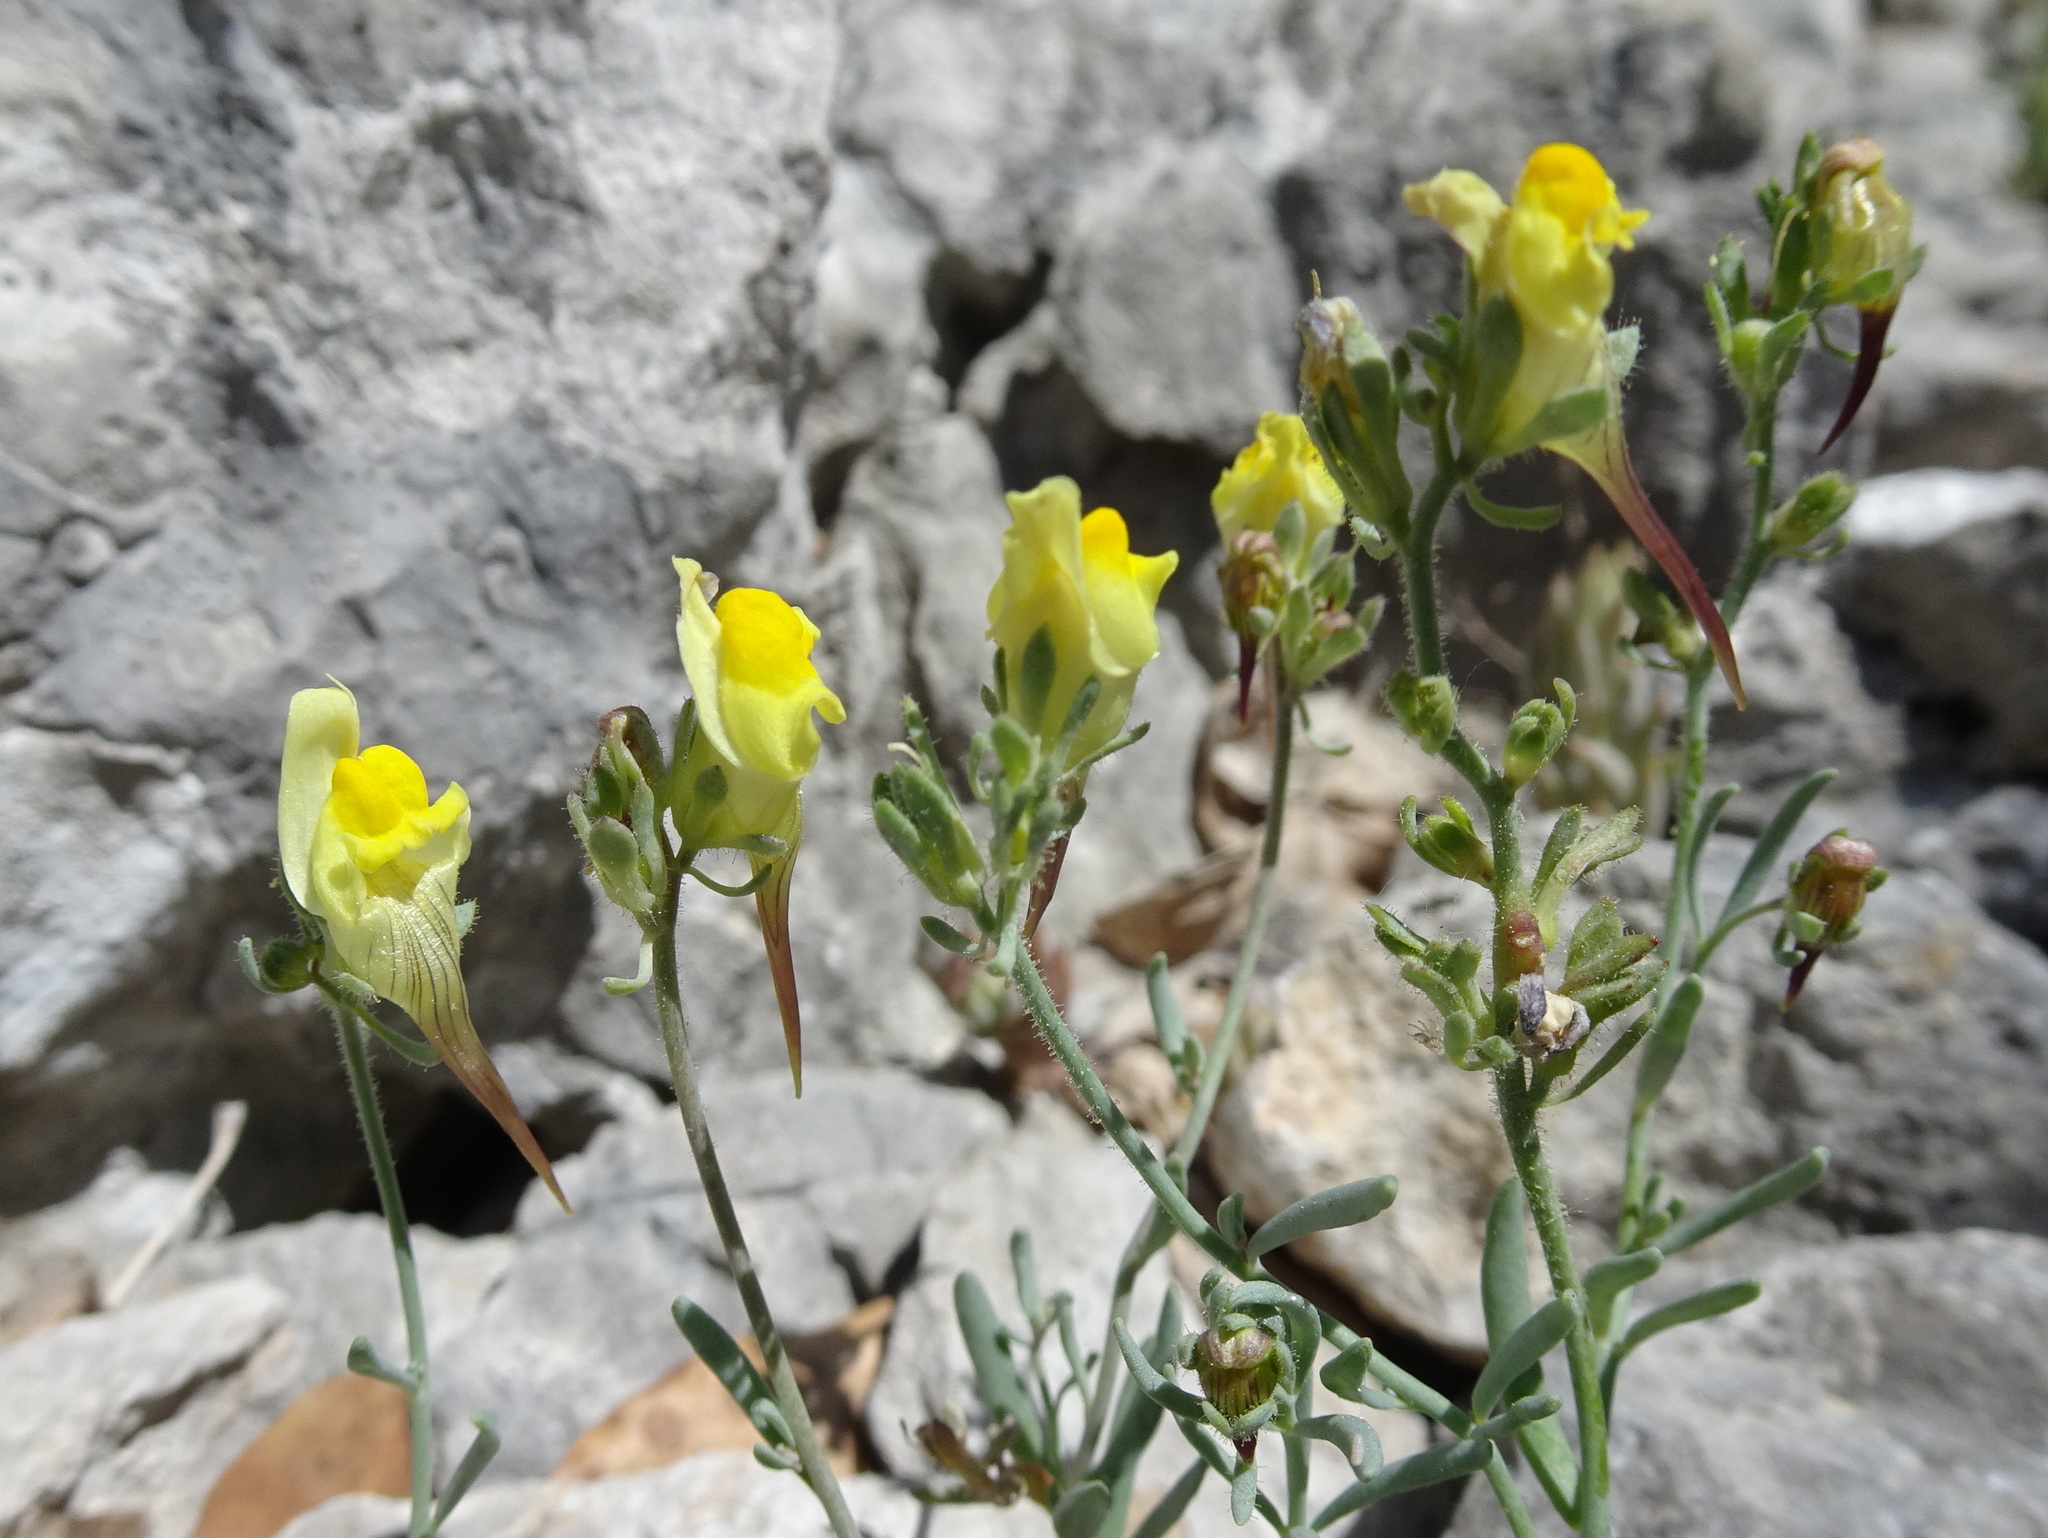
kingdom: Plantae
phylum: Tracheophyta
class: Magnoliopsida
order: Lamiales
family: Plantaginaceae
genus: Linaria
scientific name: Linaria supina
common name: Prostrate toadflax
